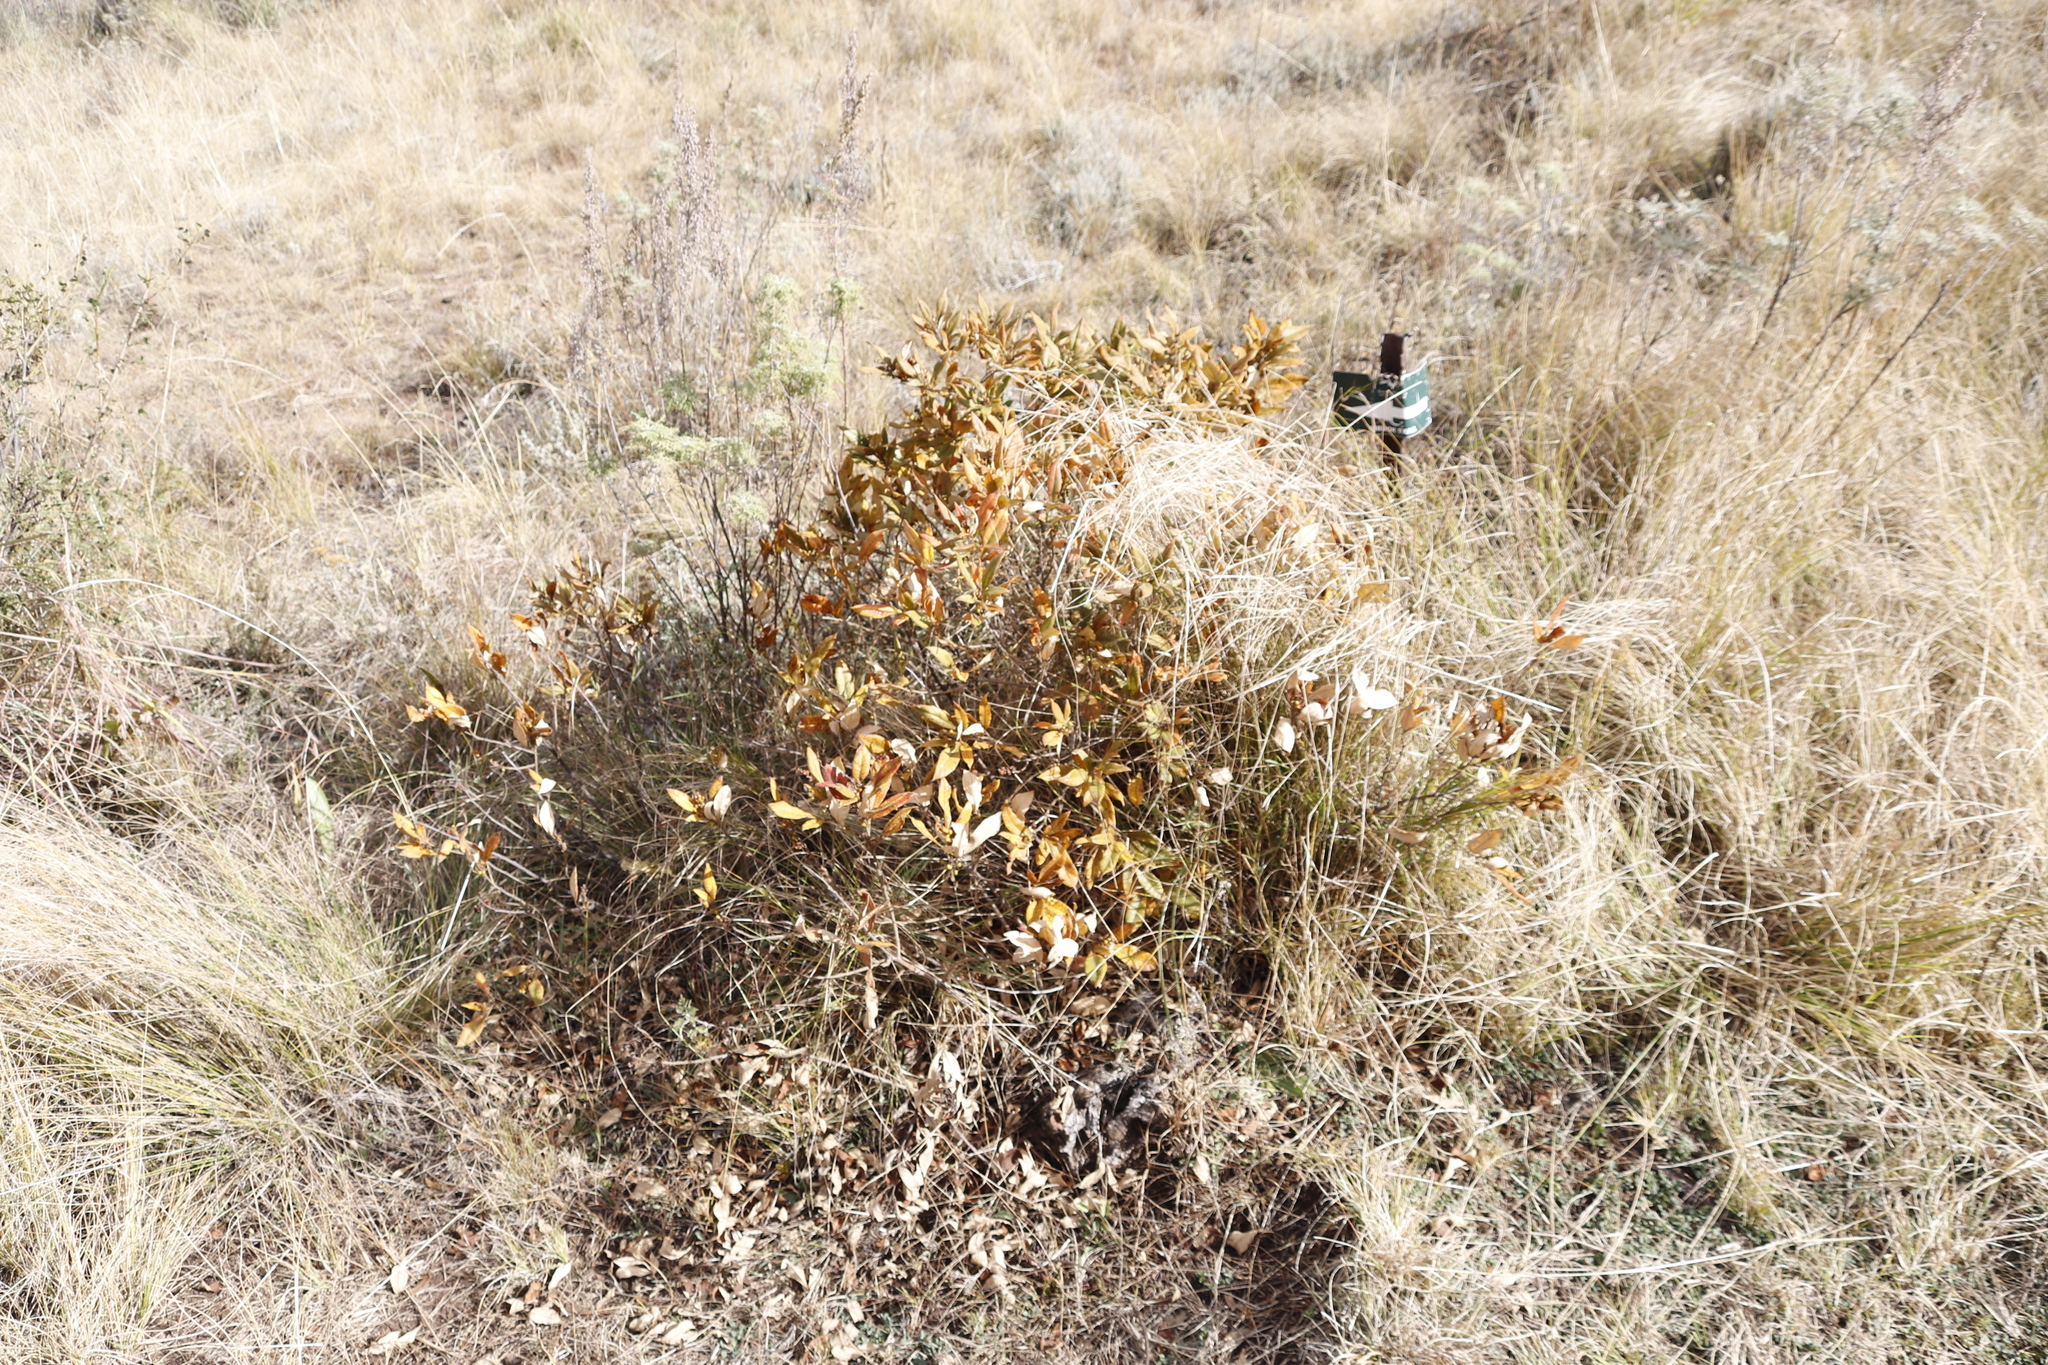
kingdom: Plantae
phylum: Tracheophyta
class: Magnoliopsida
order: Sapindales
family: Anacardiaceae
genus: Searsia
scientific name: Searsia discolor
